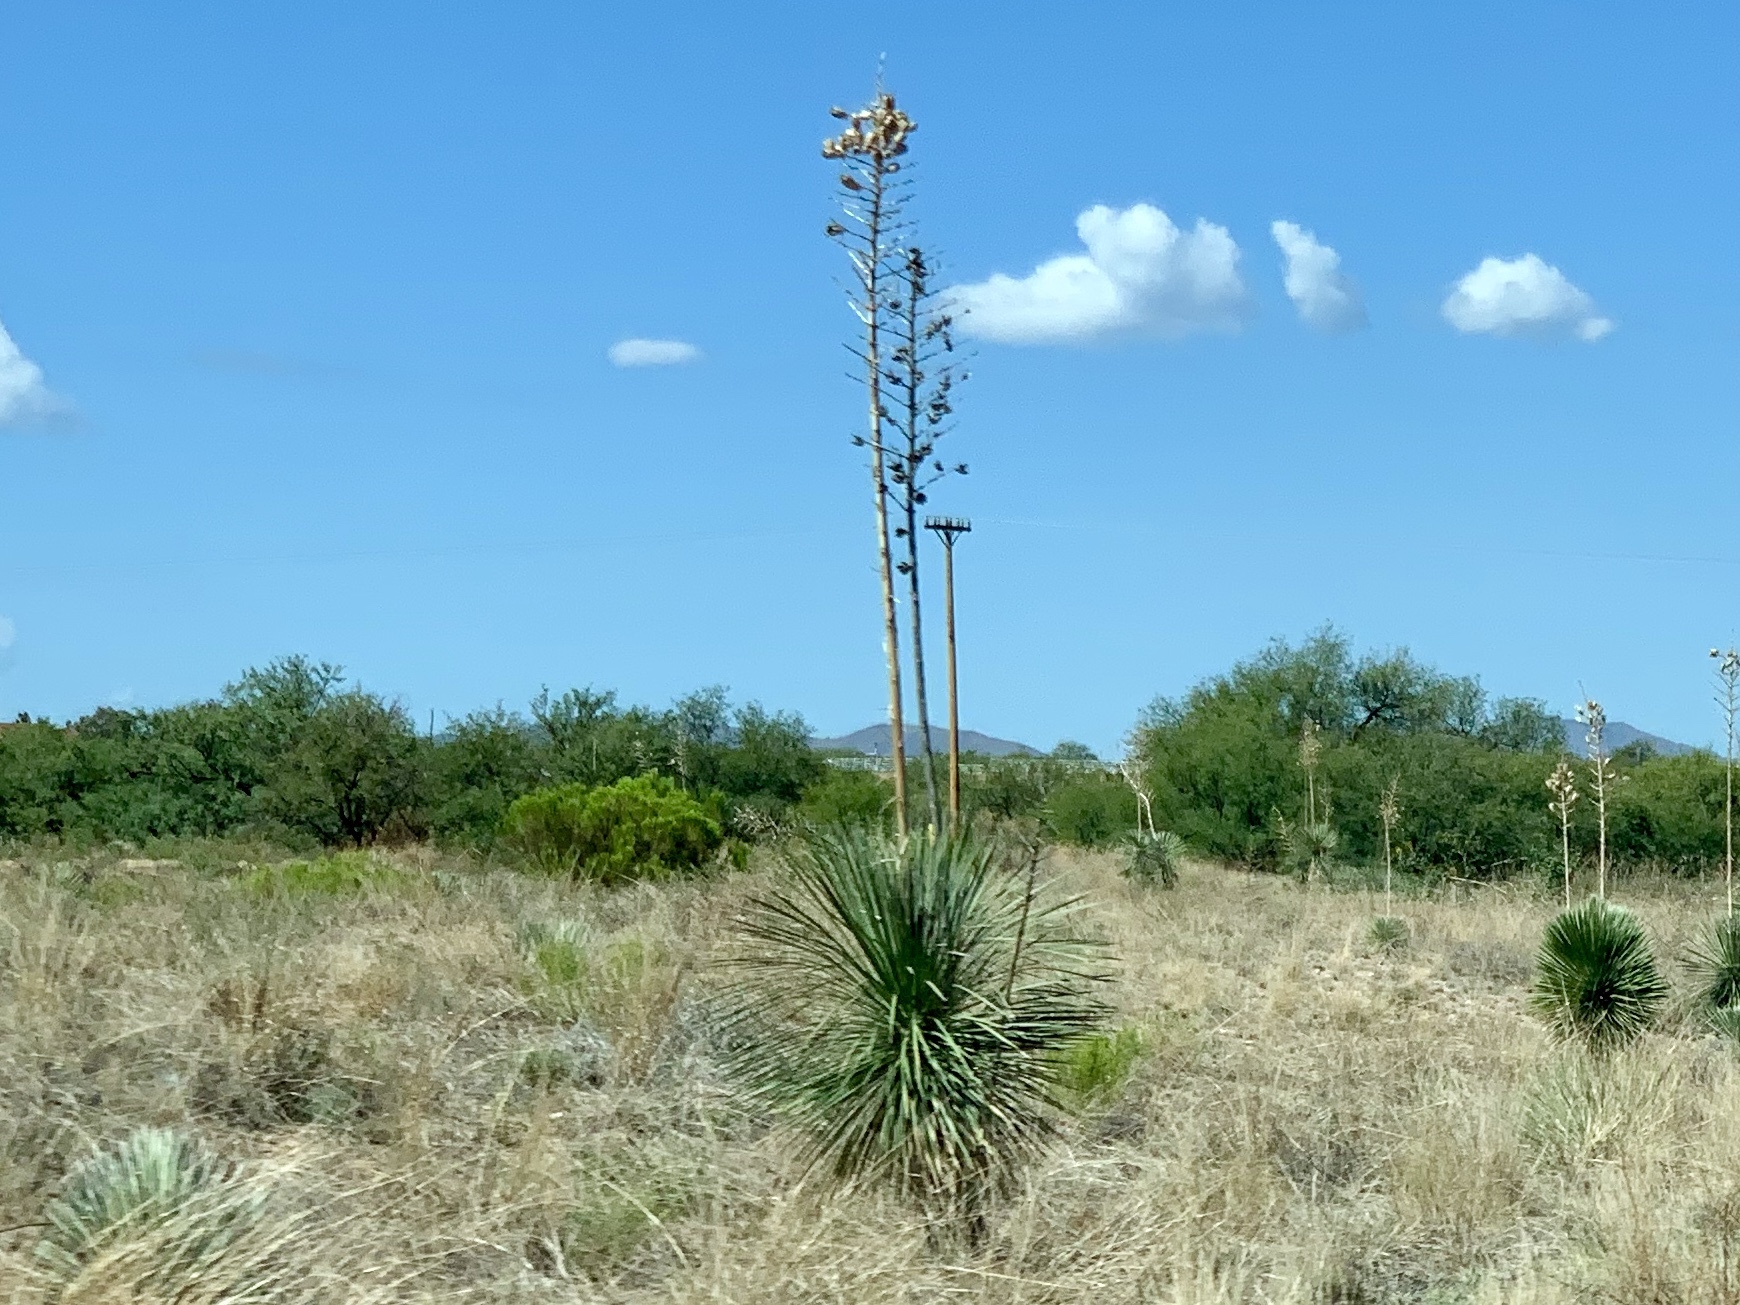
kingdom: Plantae
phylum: Tracheophyta
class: Liliopsida
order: Asparagales
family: Asparagaceae
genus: Yucca
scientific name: Yucca elata
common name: Palmella
